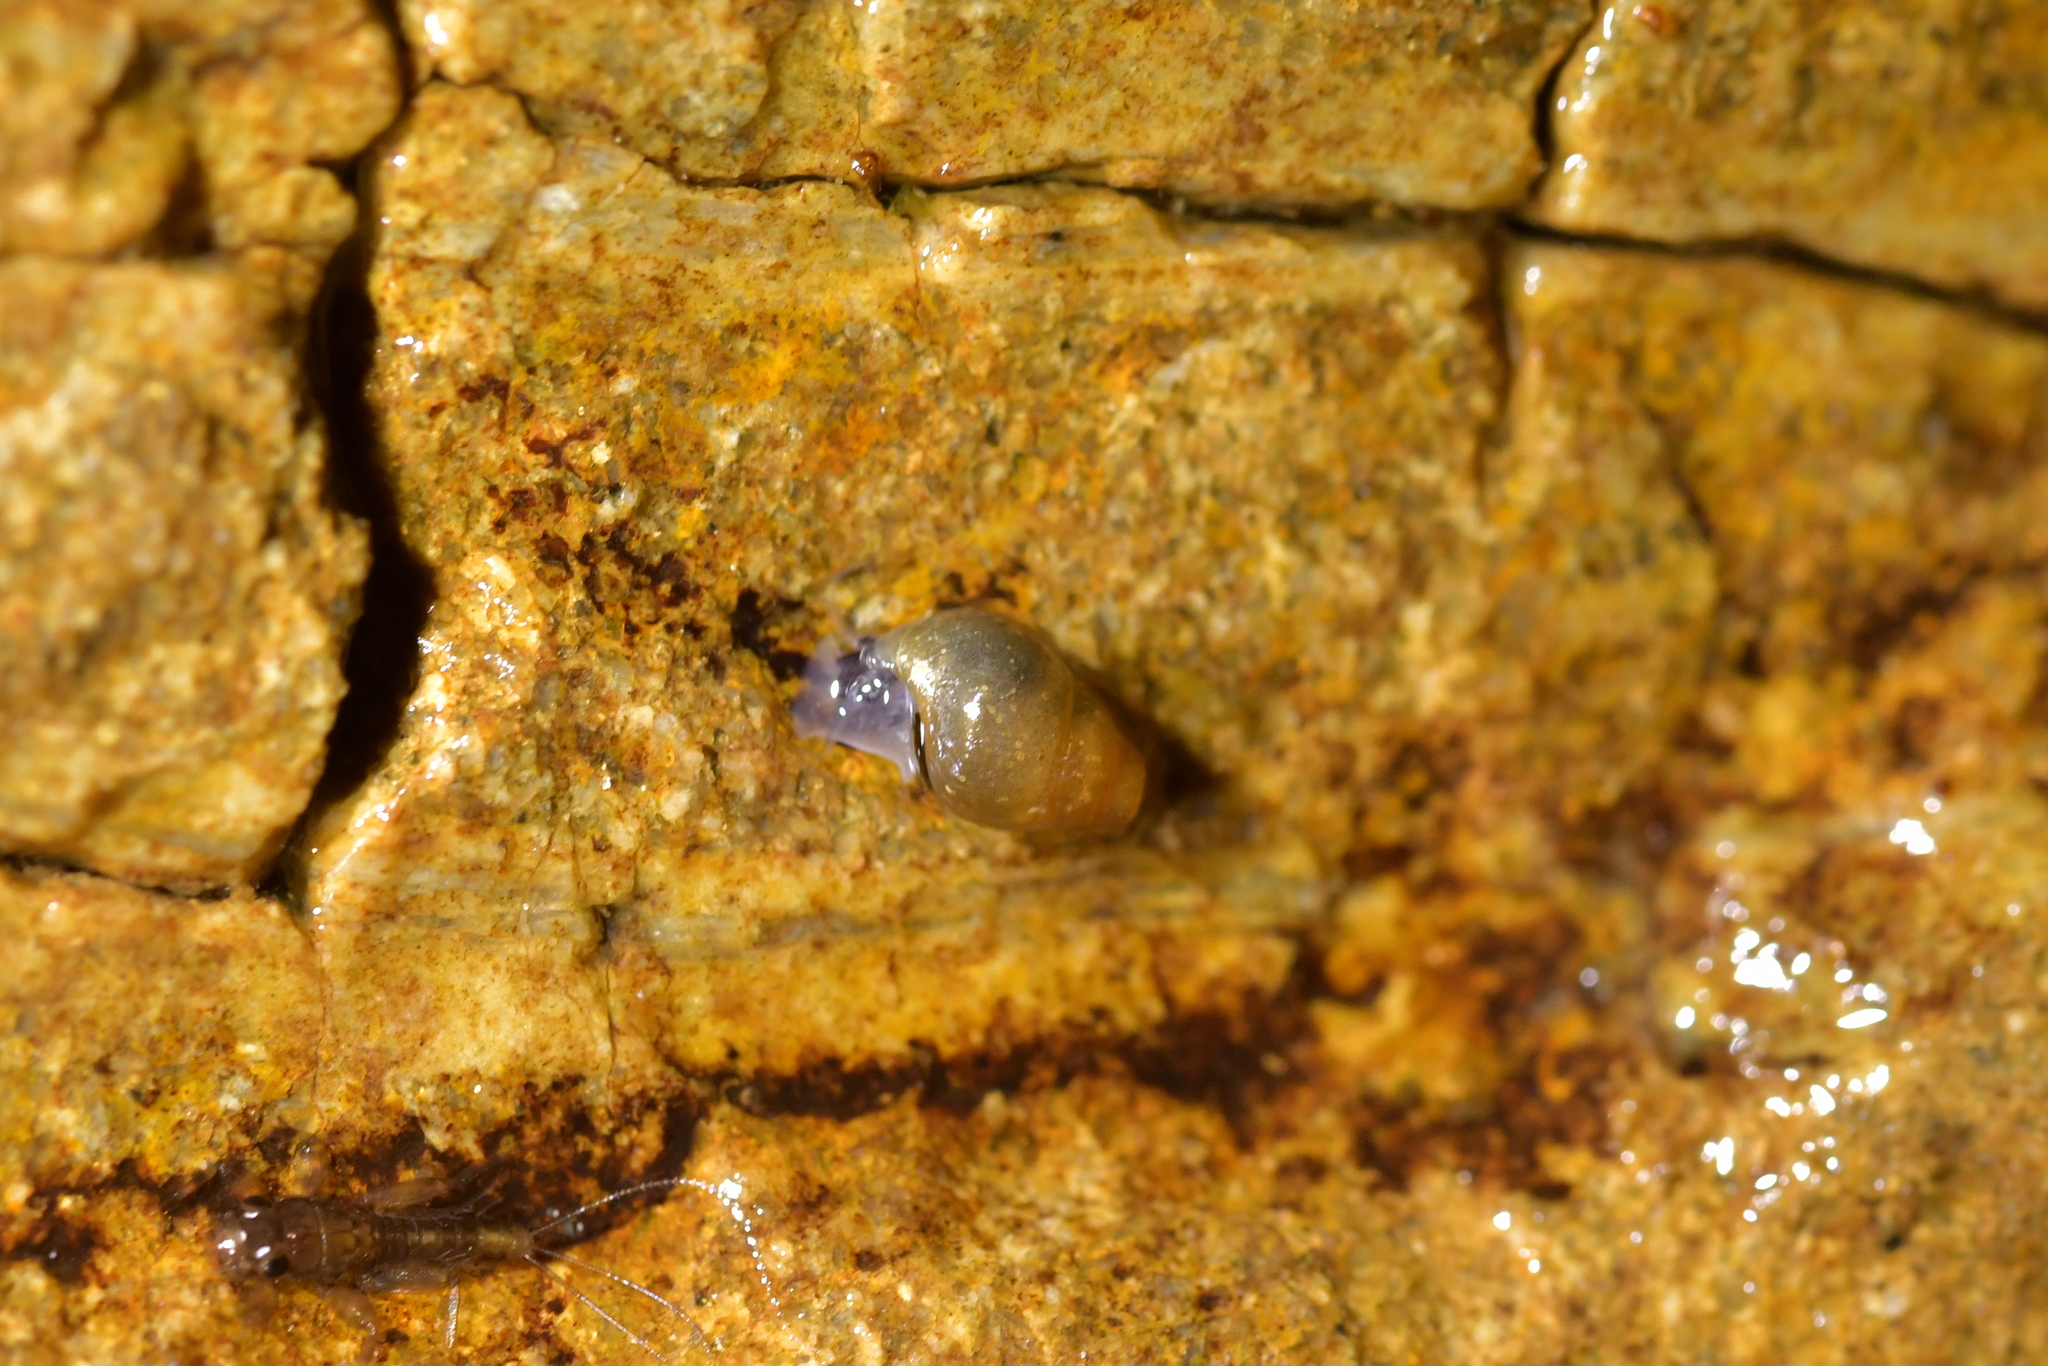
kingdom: Animalia
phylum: Mollusca
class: Gastropoda
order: Littorinimorpha
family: Tateidae
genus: Potamopyrgus
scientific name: Potamopyrgus antipodarum
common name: Jenkins' spire snail
